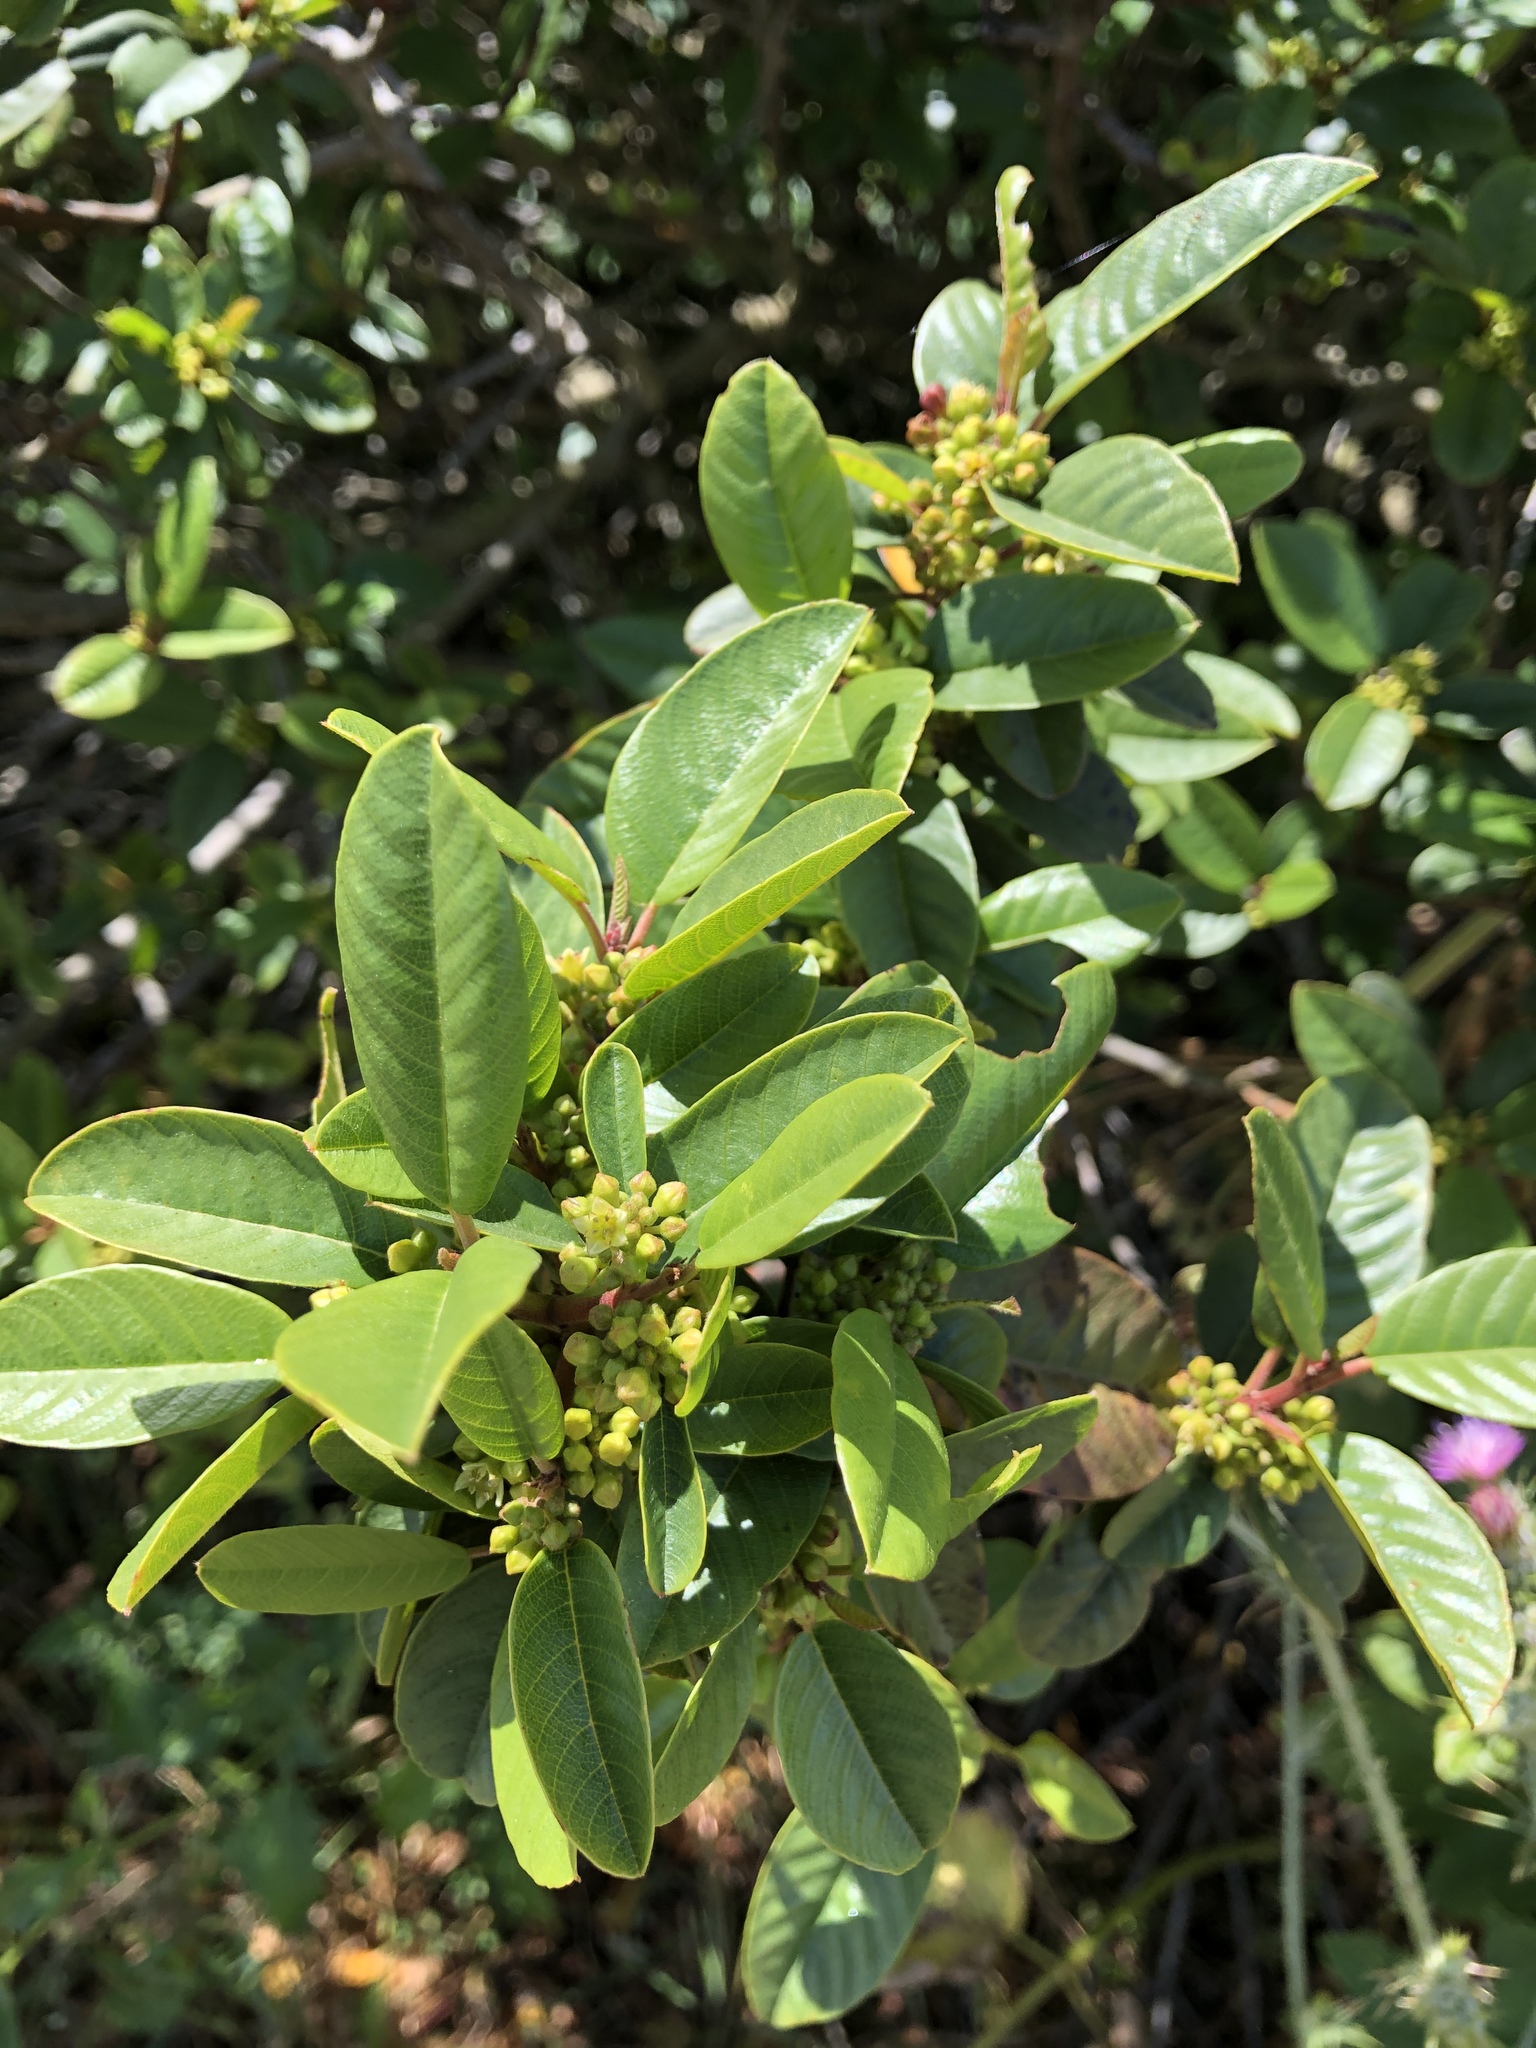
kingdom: Plantae
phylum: Tracheophyta
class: Magnoliopsida
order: Rosales
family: Rhamnaceae
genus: Frangula
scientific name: Frangula californica
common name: California buckthorn
